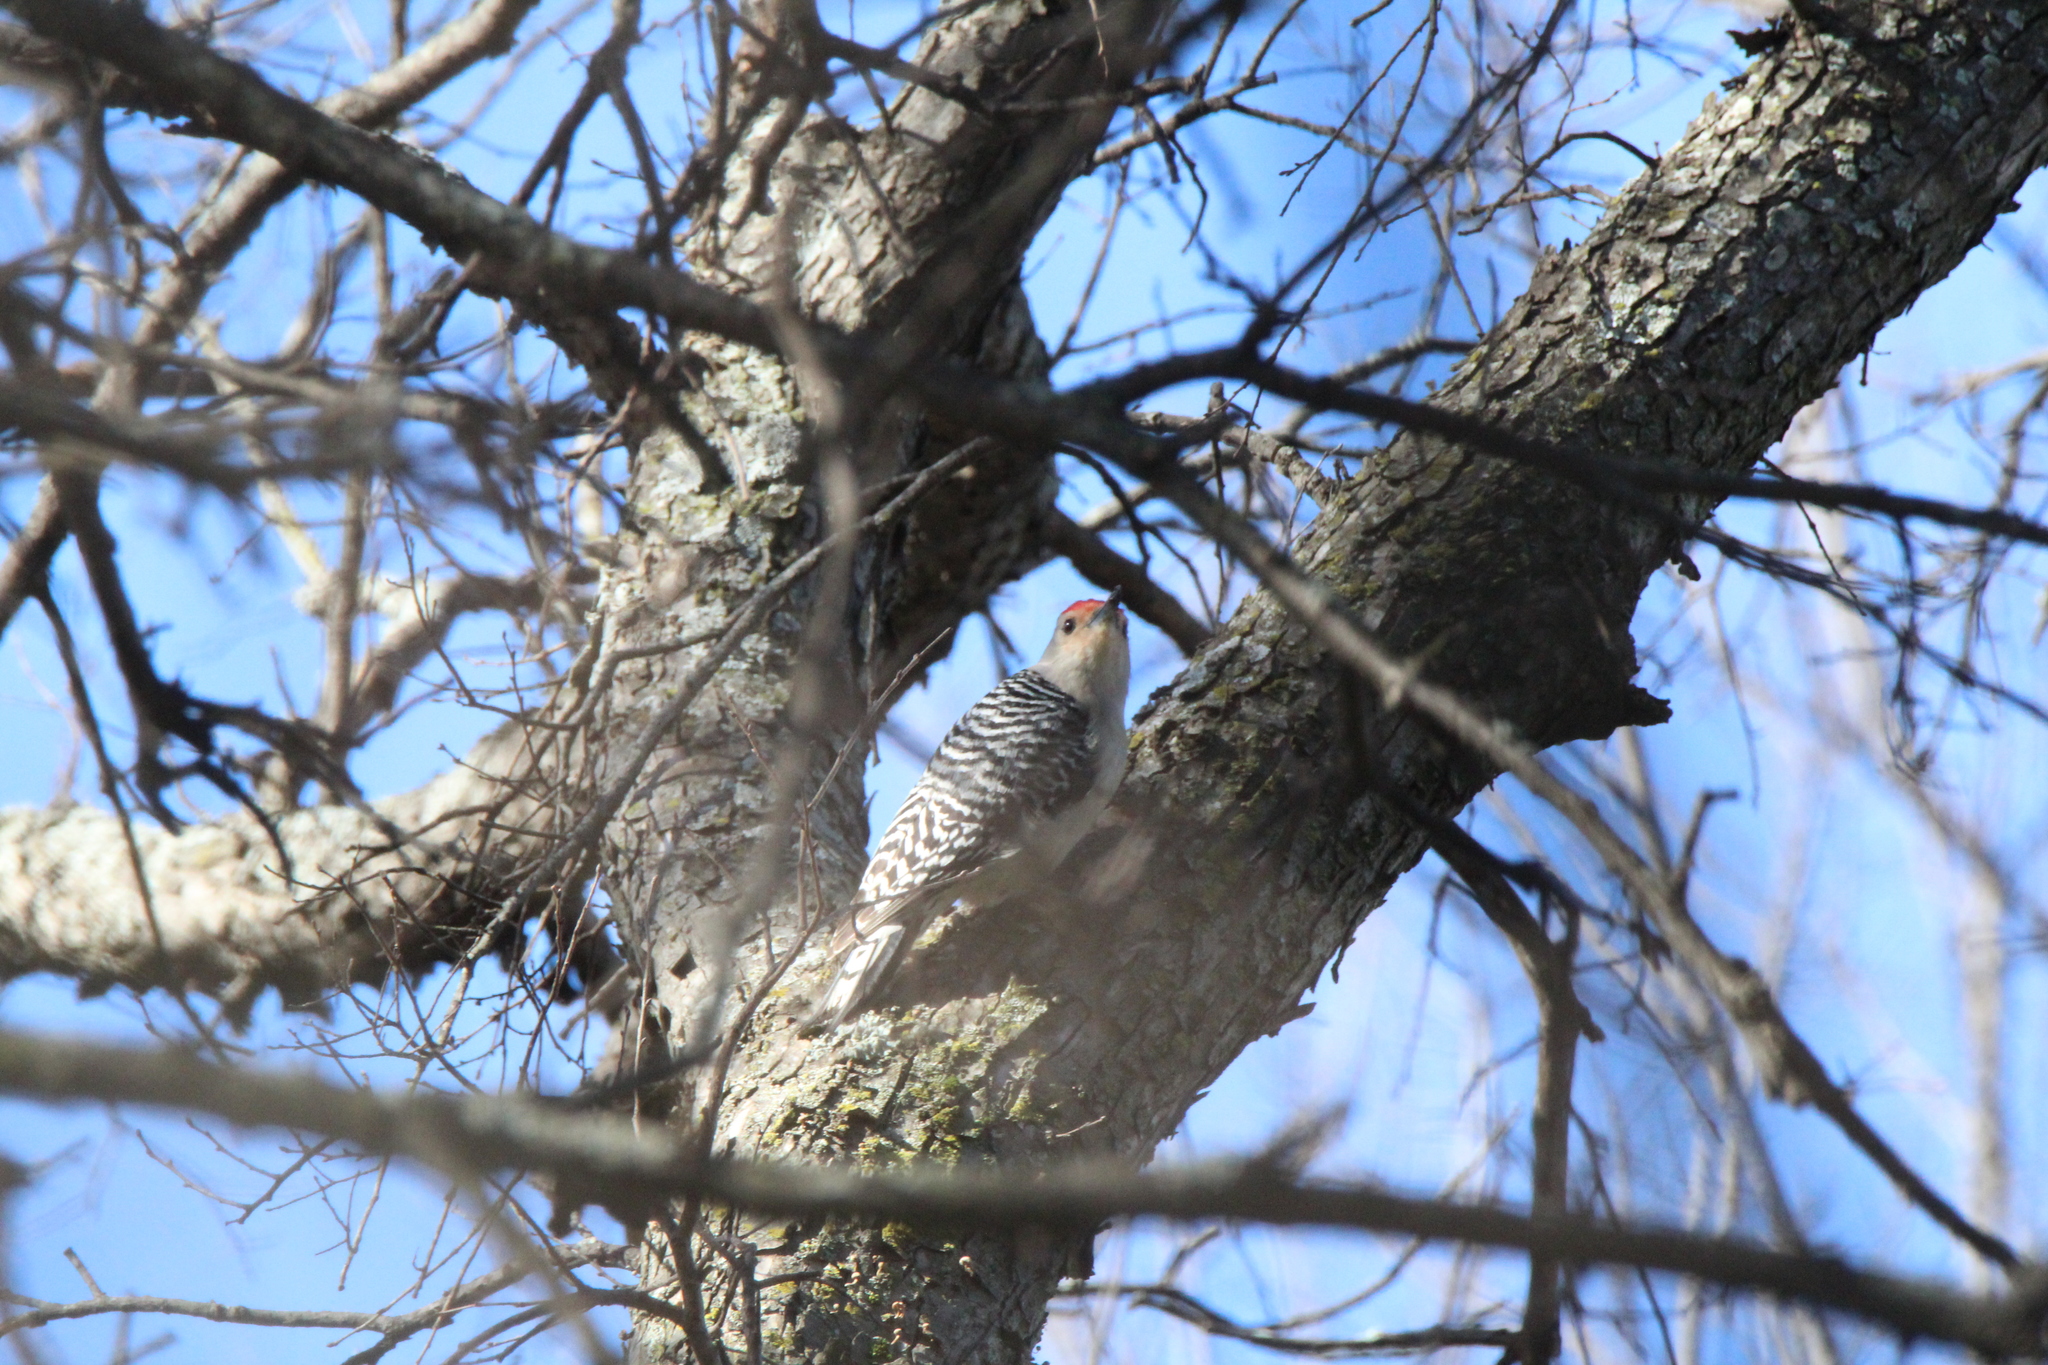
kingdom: Animalia
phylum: Chordata
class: Aves
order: Piciformes
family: Picidae
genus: Melanerpes
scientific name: Melanerpes carolinus
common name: Red-bellied woodpecker
